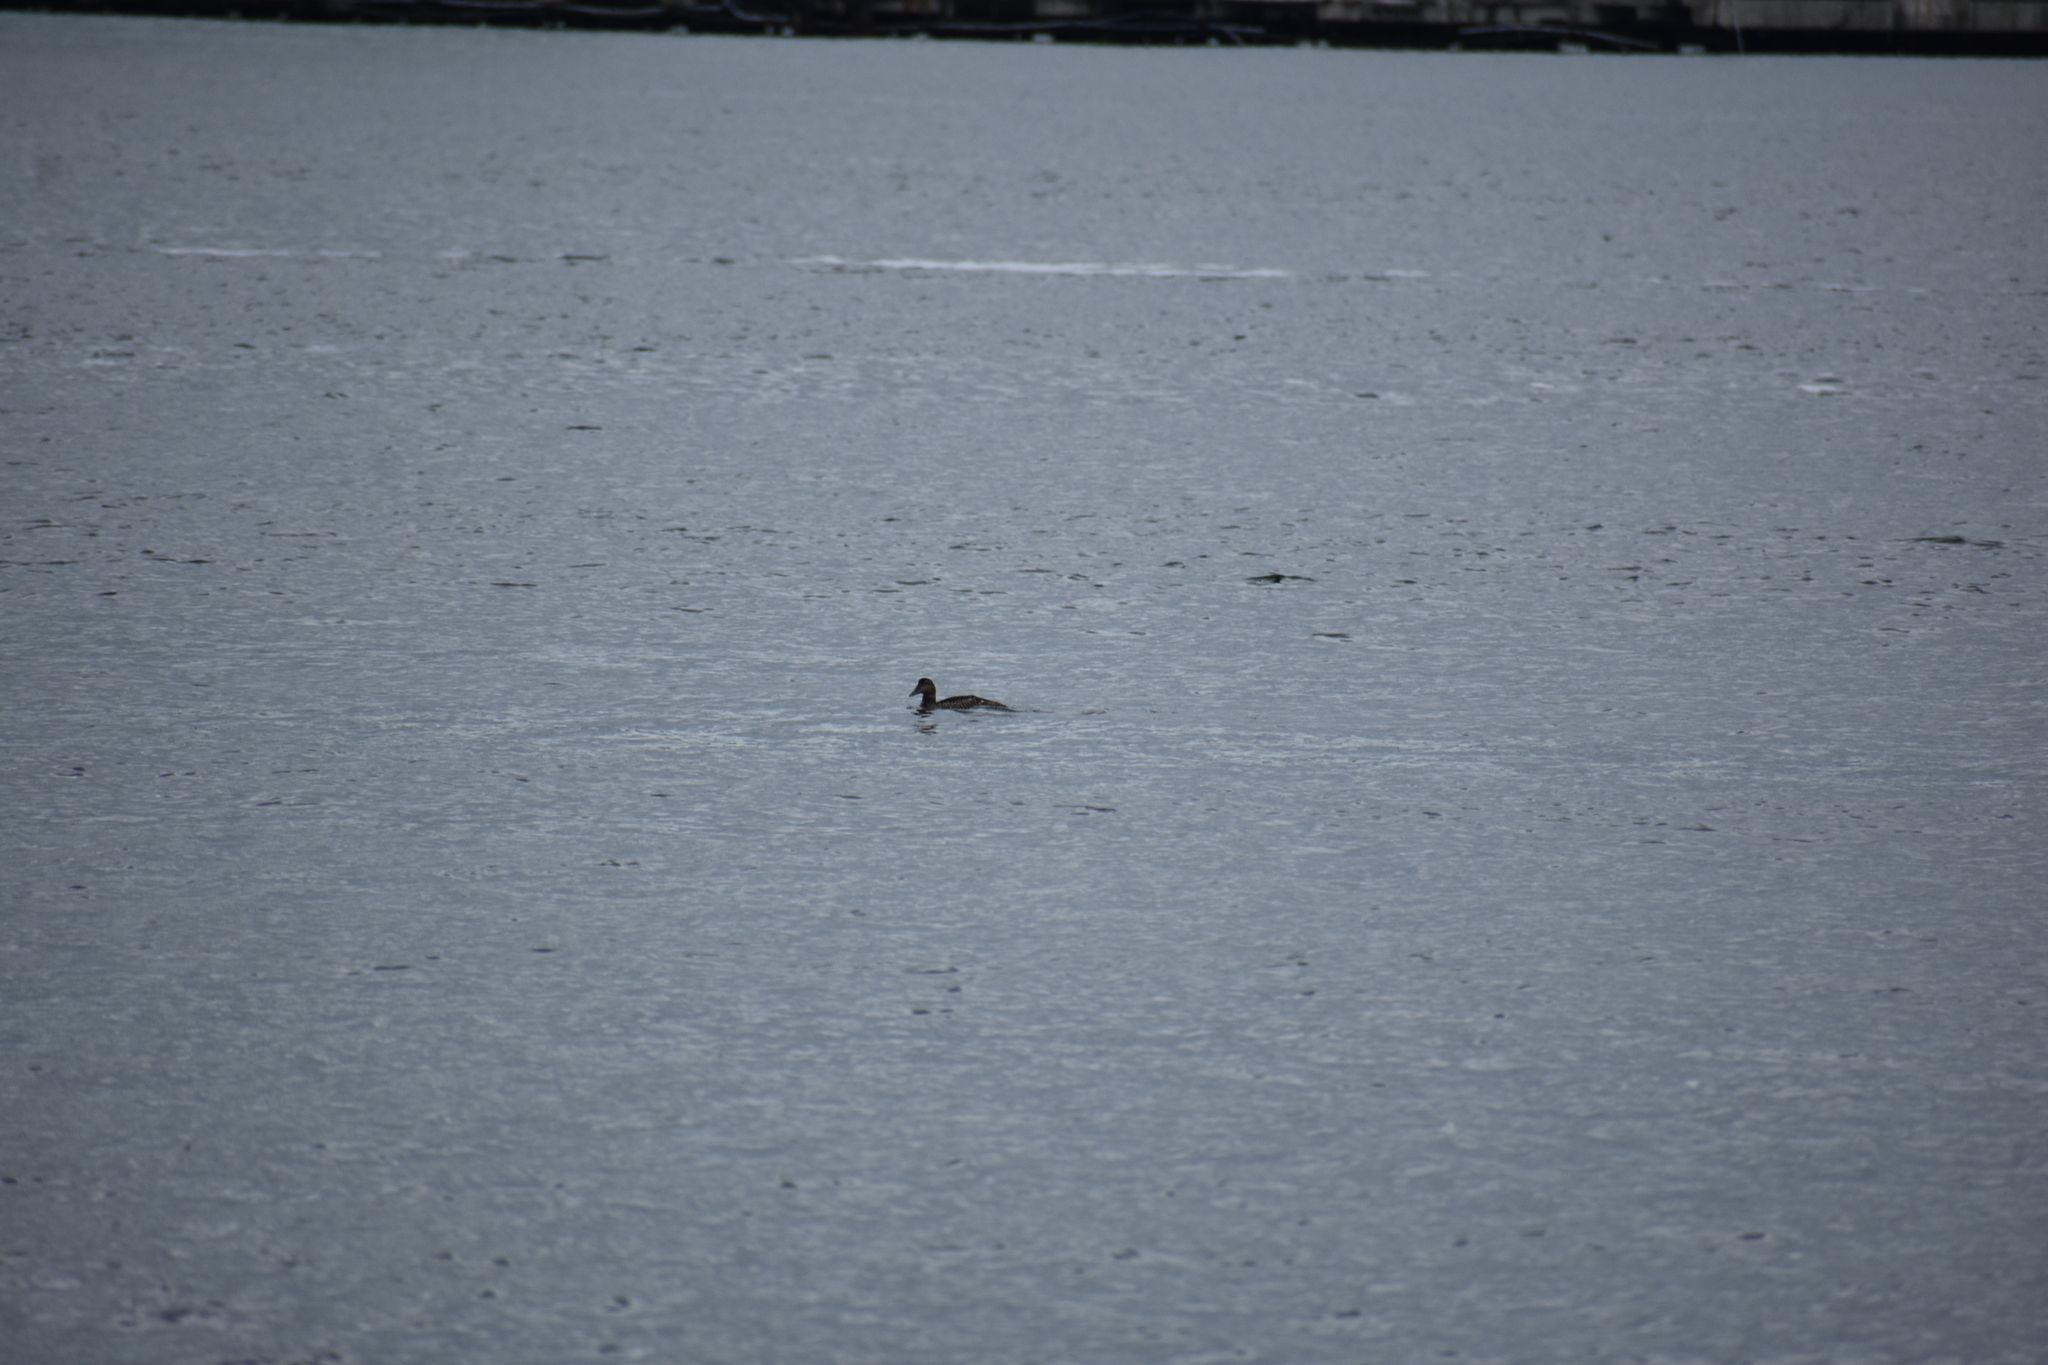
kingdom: Animalia
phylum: Chordata
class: Aves
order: Anseriformes
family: Anatidae
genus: Somateria
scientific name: Somateria mollissima
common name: Common eider
